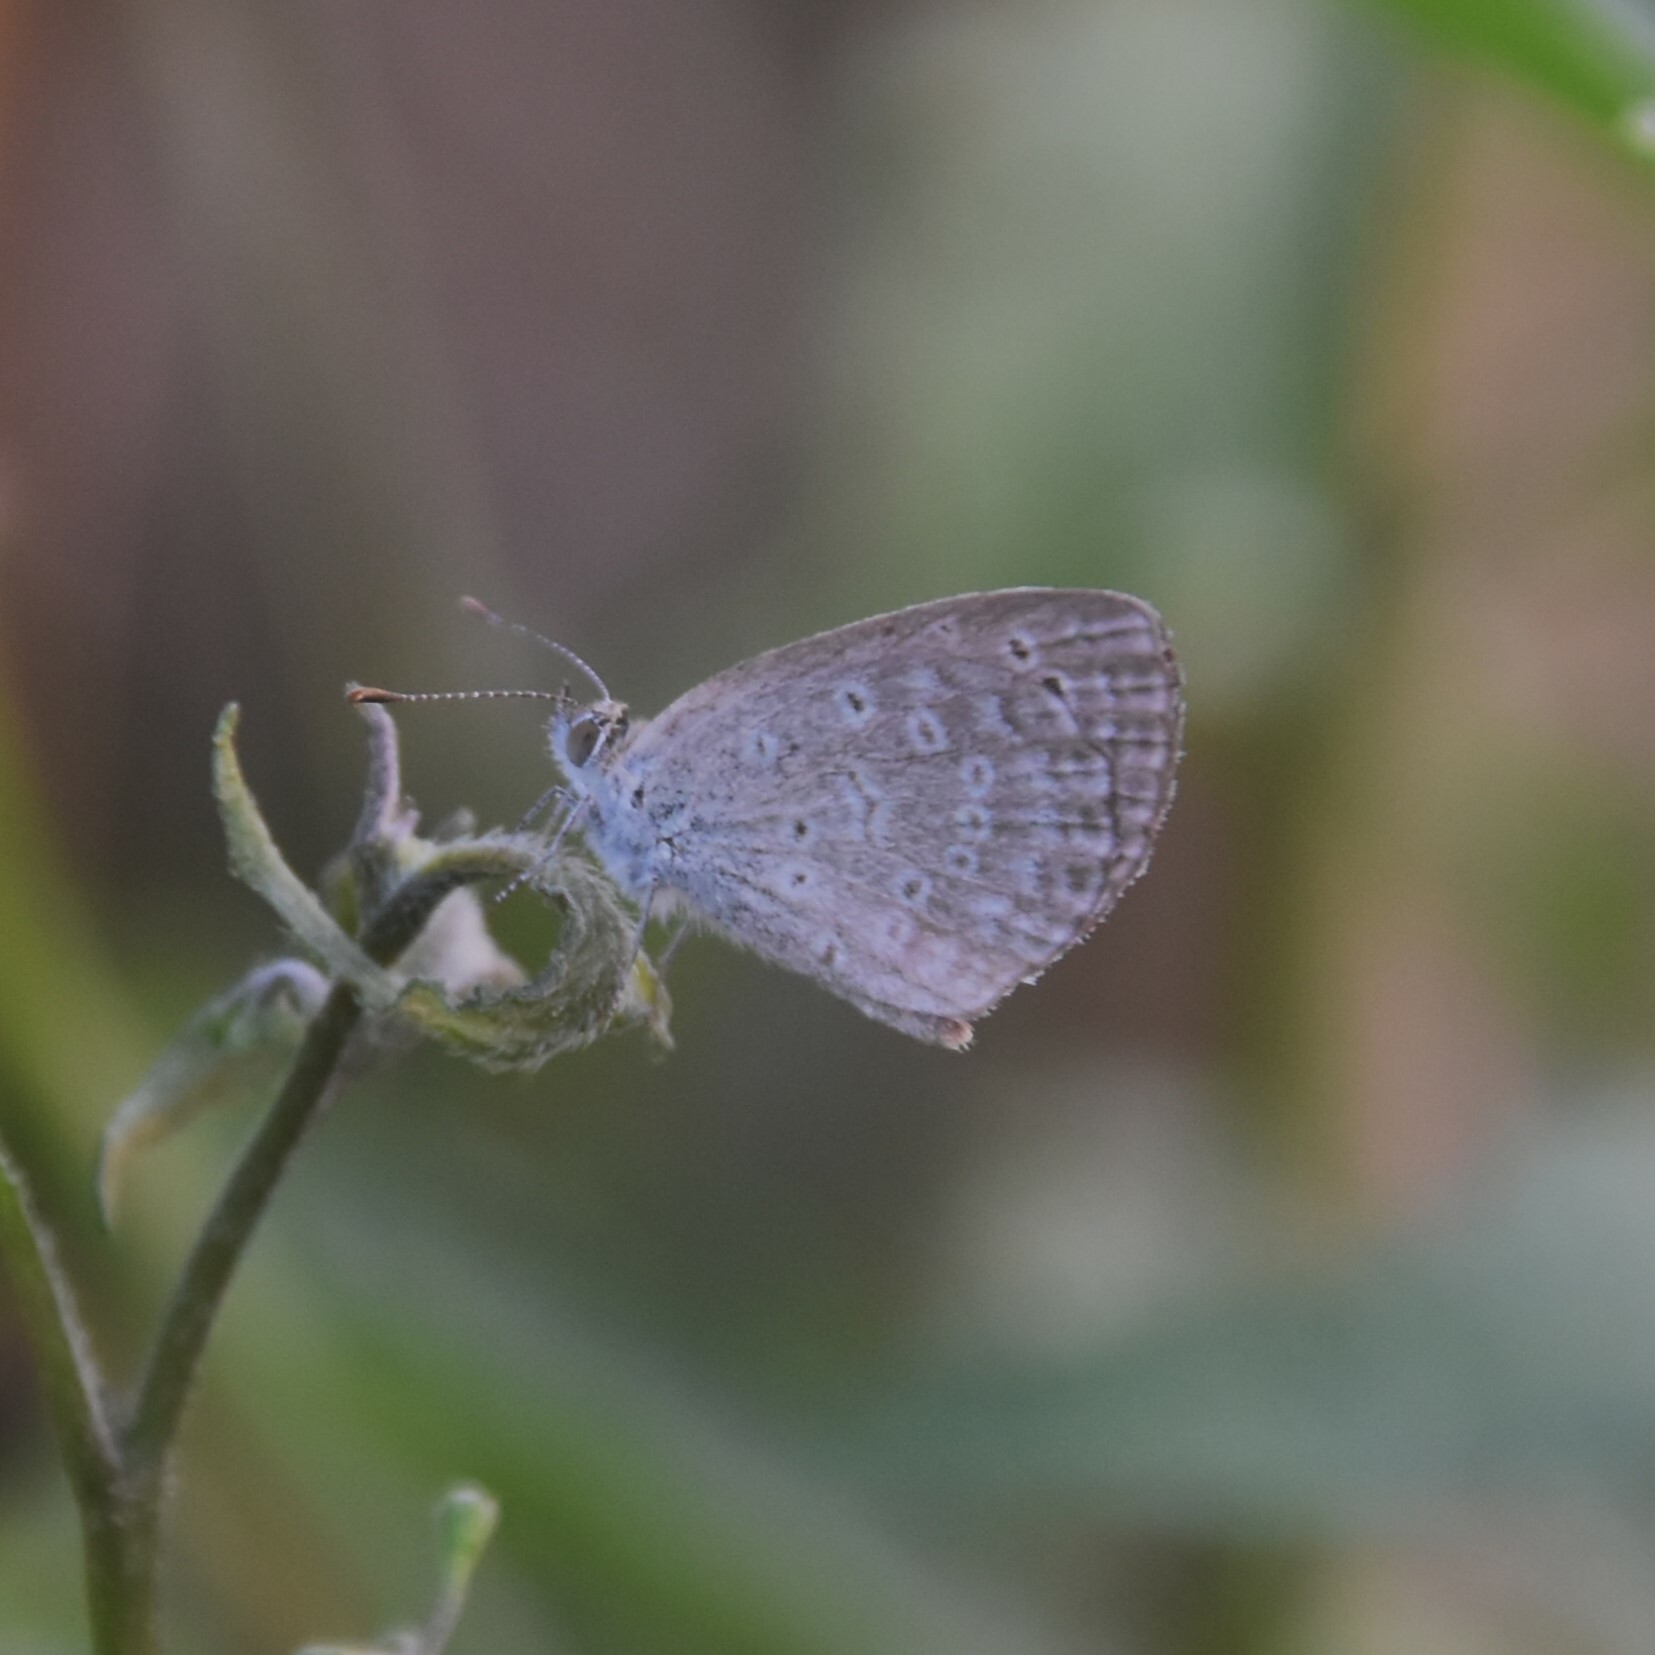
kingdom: Animalia
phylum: Arthropoda
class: Insecta
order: Lepidoptera
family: Lycaenidae
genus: Pseudozizeeria
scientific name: Pseudozizeeria maha
